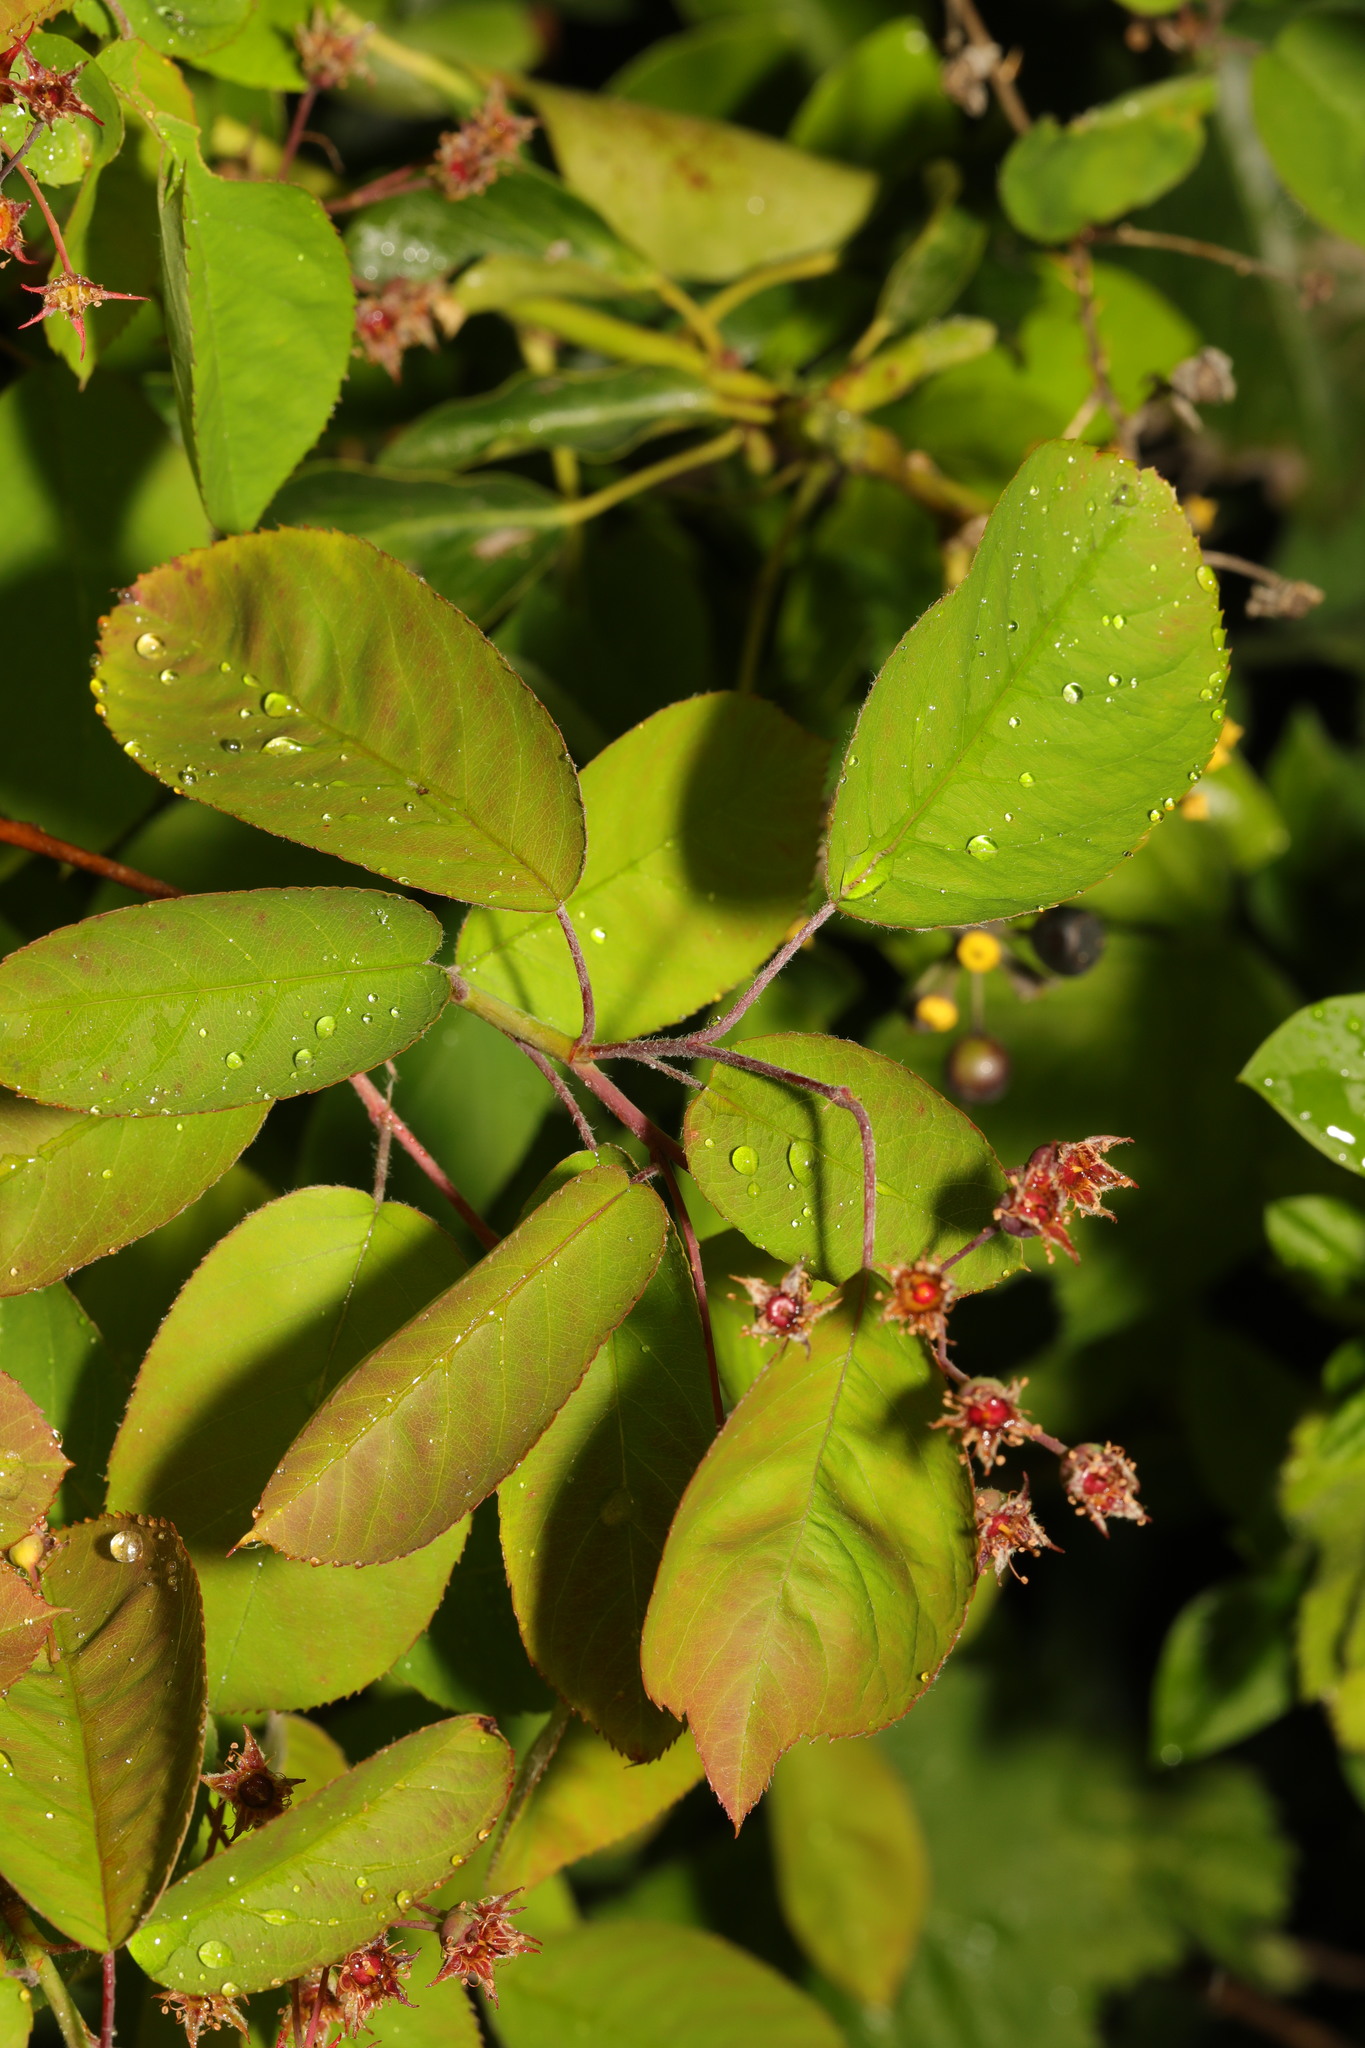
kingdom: Plantae
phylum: Tracheophyta
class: Magnoliopsida
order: Rosales
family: Rosaceae
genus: Amelanchier
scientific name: Amelanchier lamarckii
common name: Juneberry
